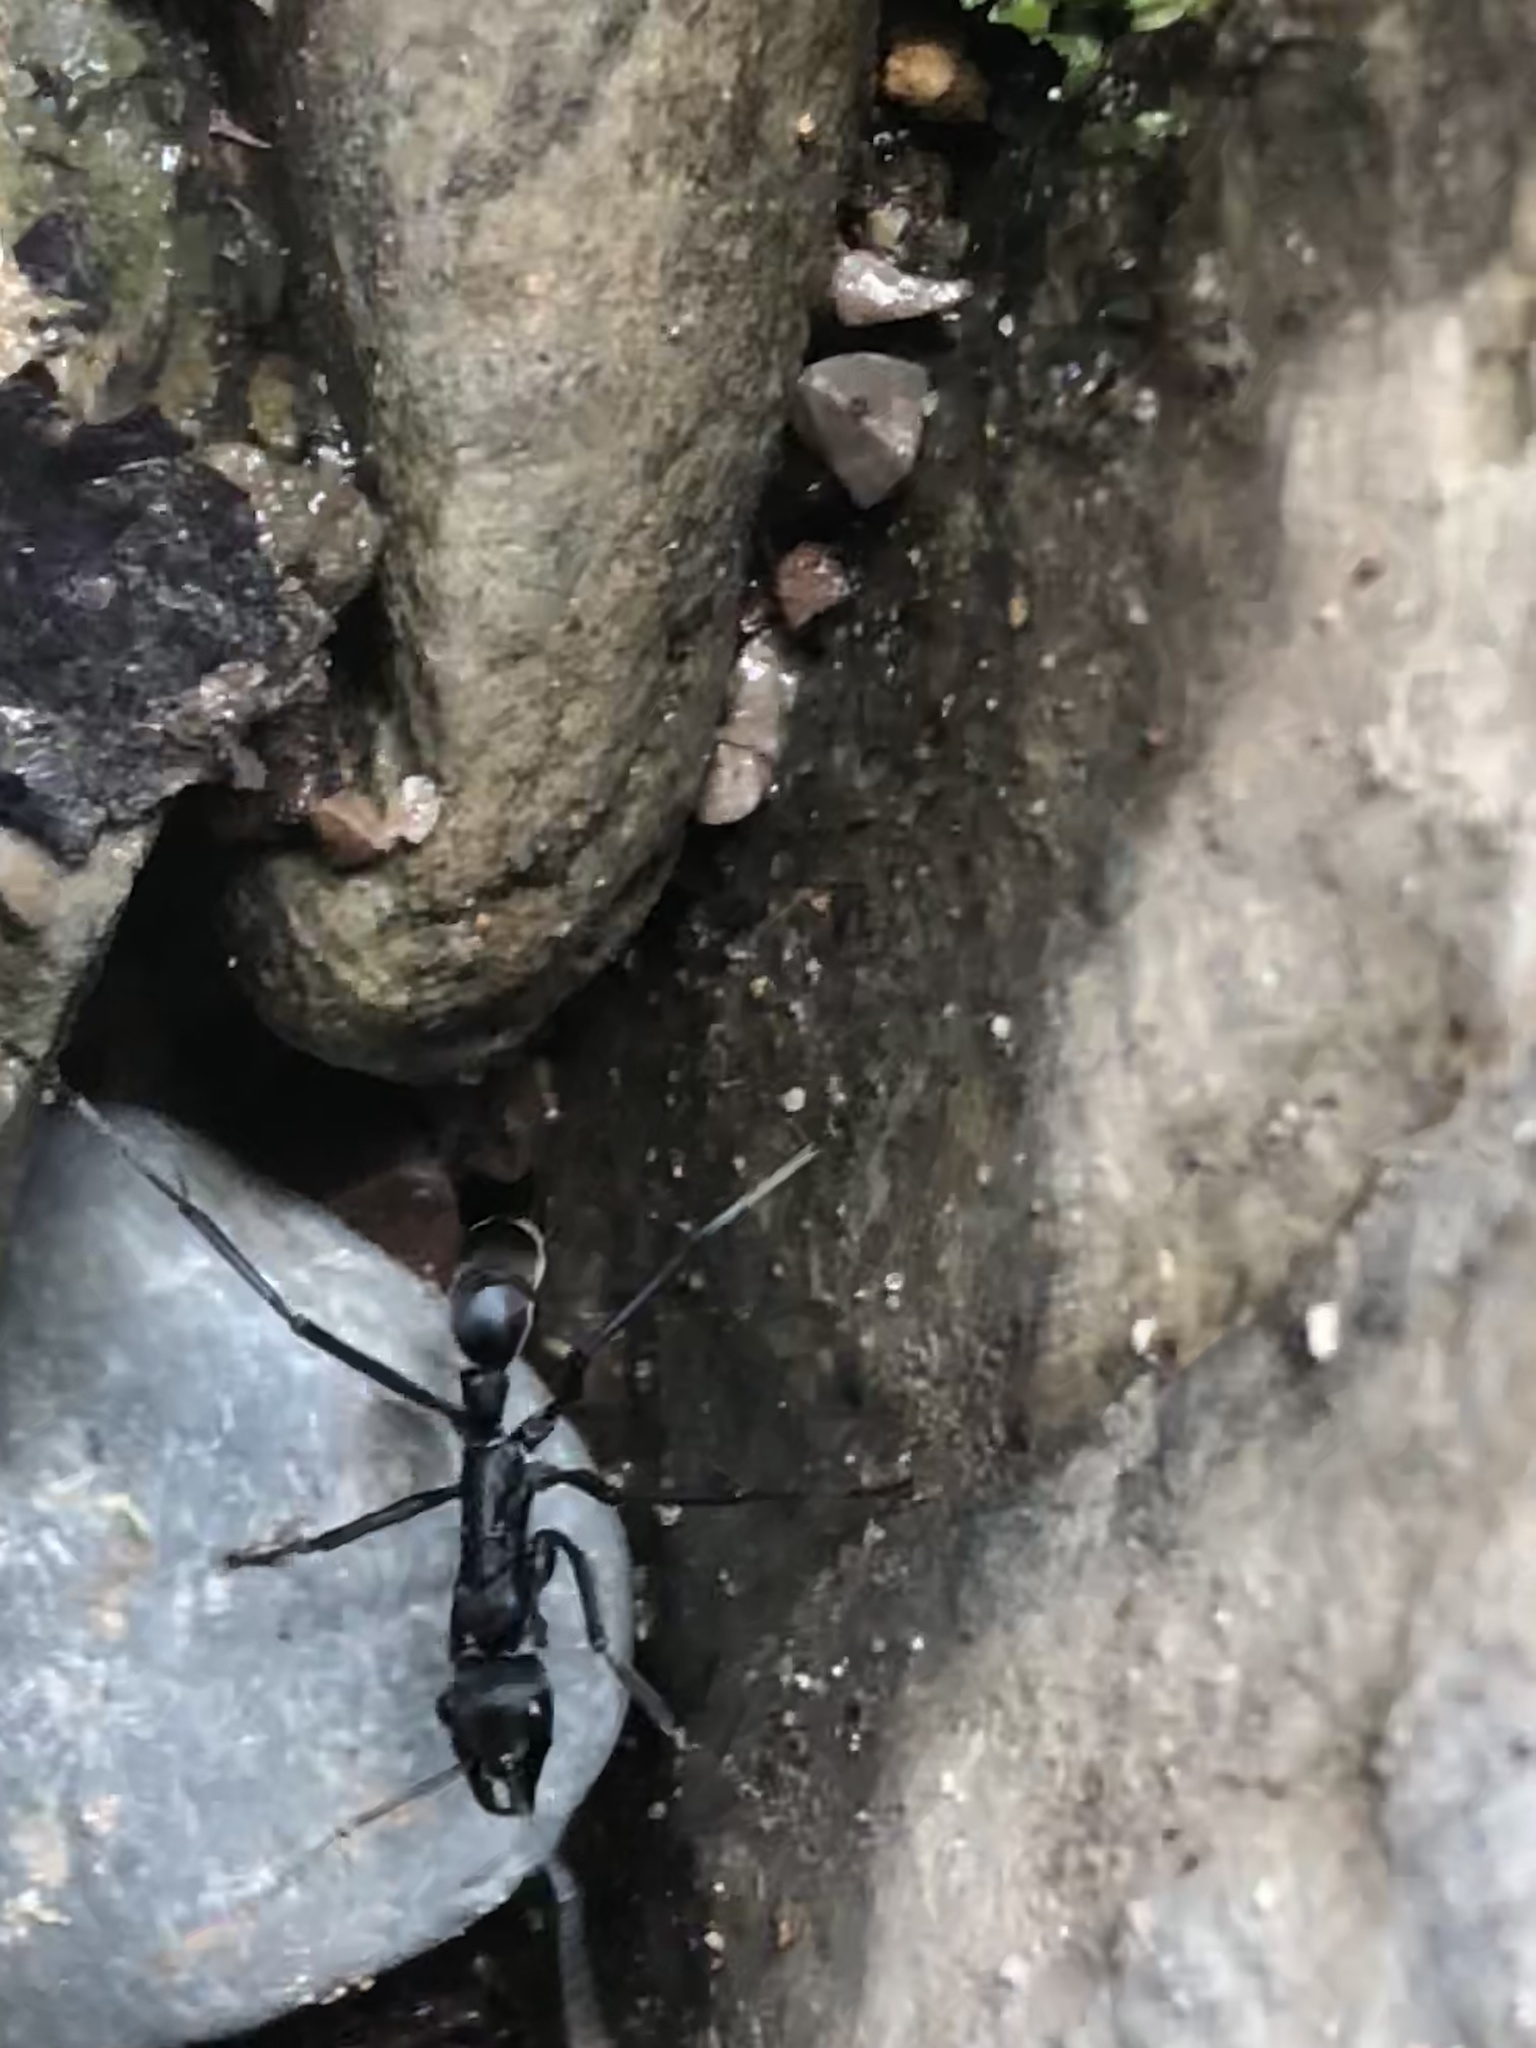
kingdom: Animalia
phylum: Arthropoda
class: Insecta
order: Hymenoptera
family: Formicidae
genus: Pachycondyla
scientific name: Pachycondyla apicalis
